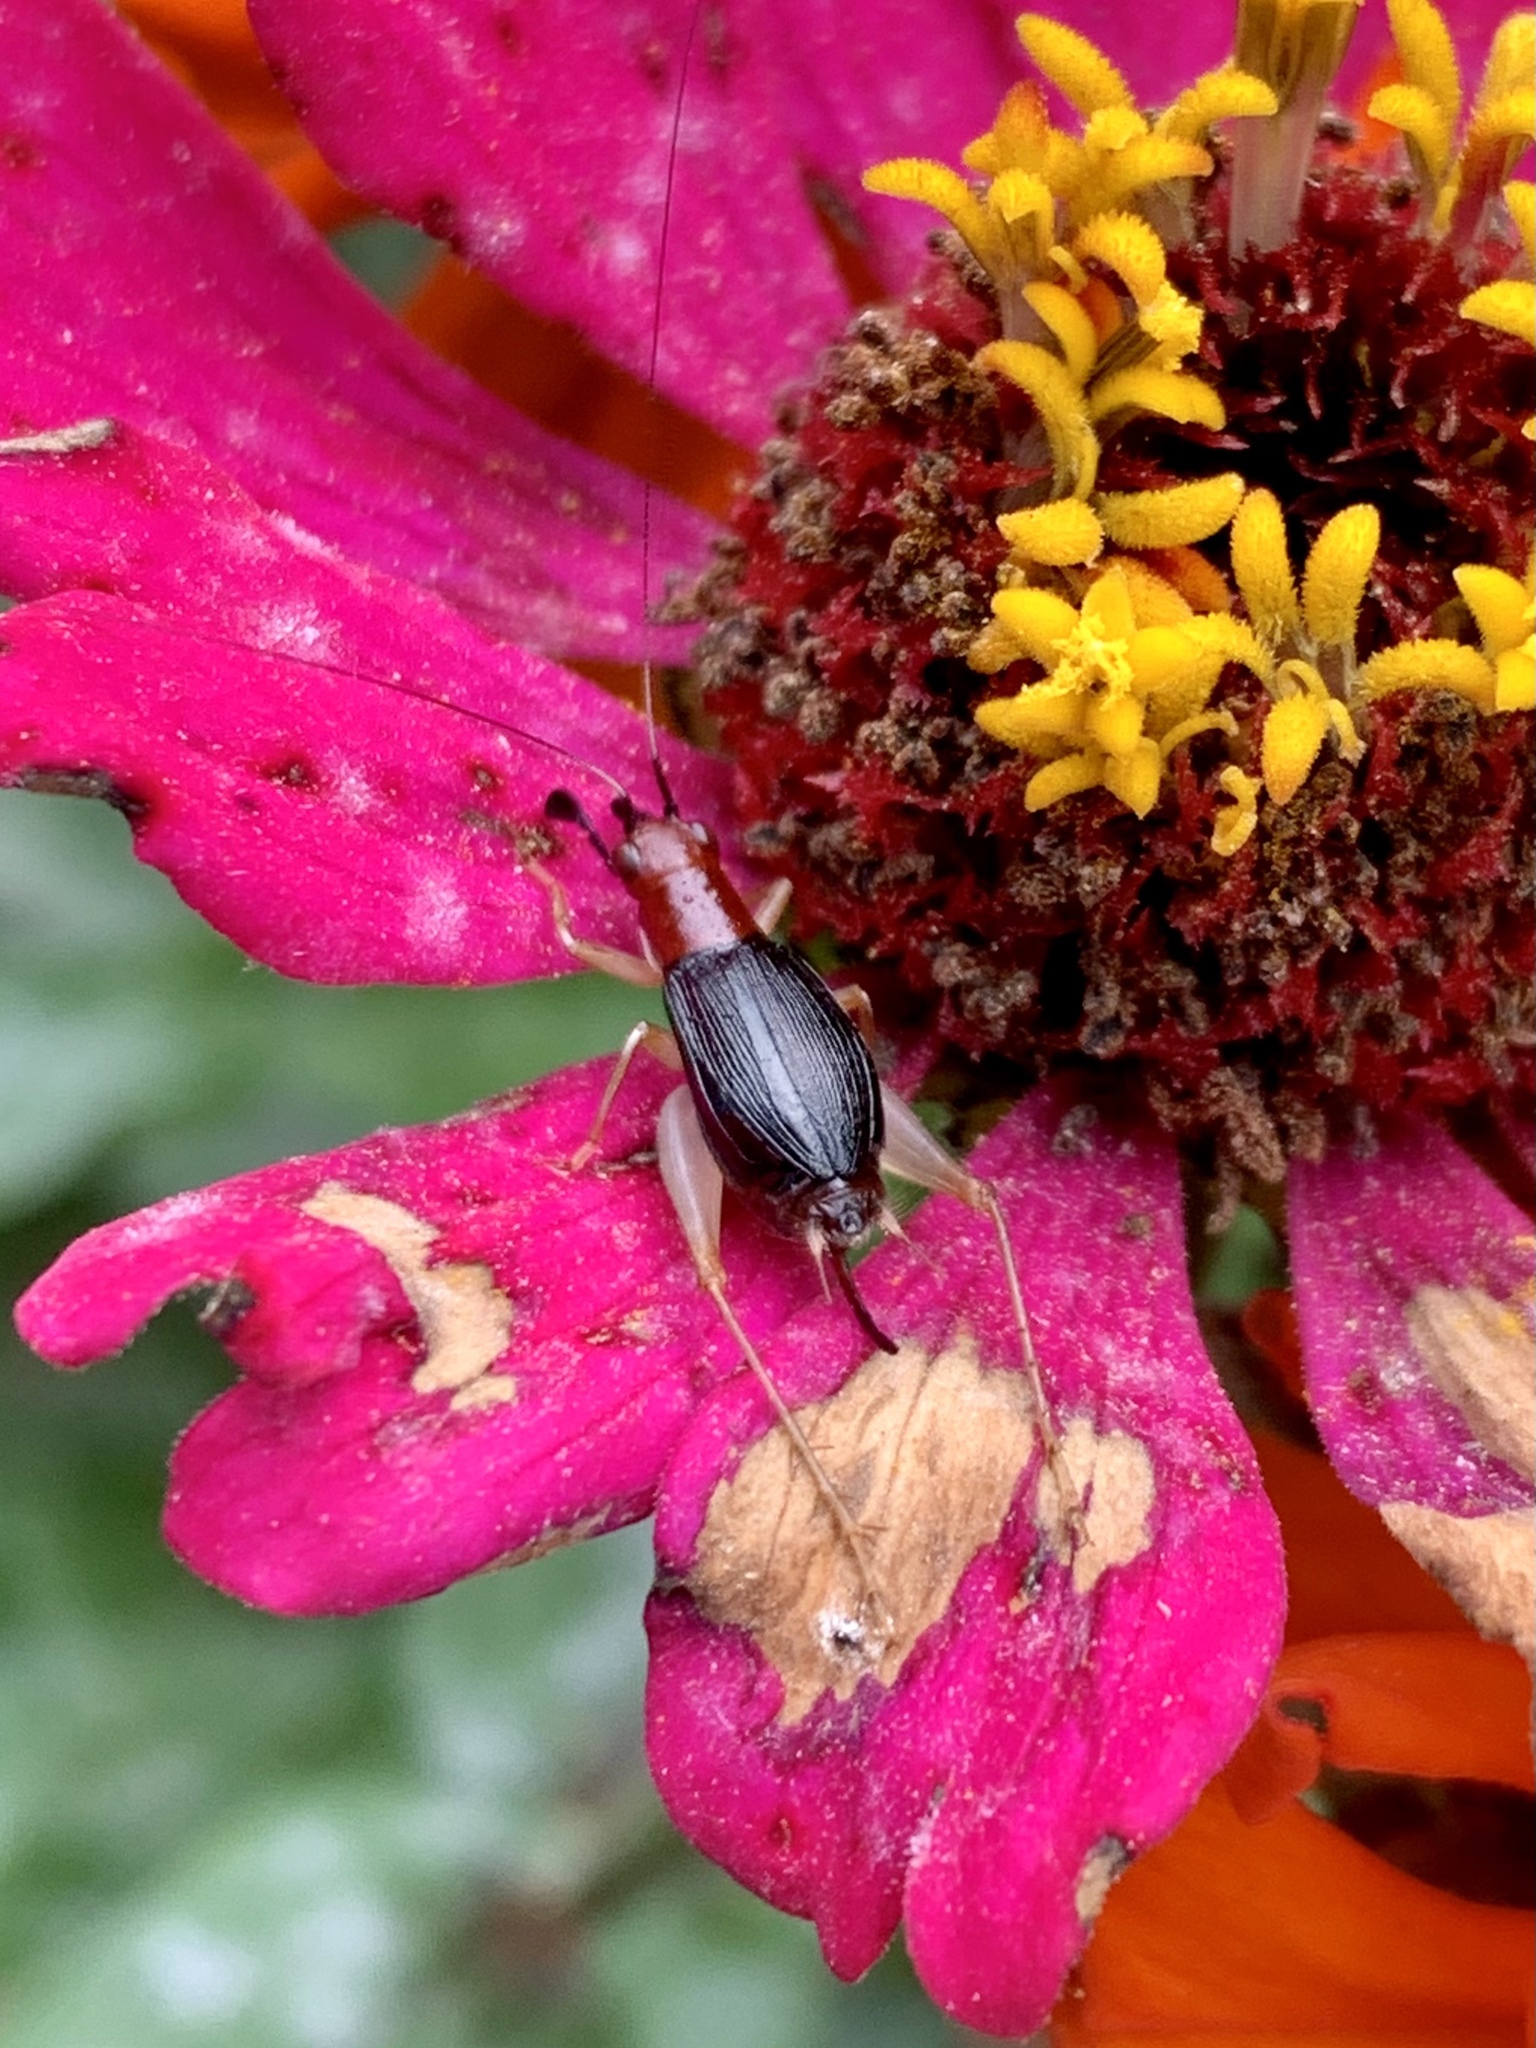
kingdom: Animalia
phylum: Arthropoda
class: Insecta
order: Orthoptera
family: Trigonidiidae
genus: Phyllopalpus
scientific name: Phyllopalpus pulchellus
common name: Handsome trig
